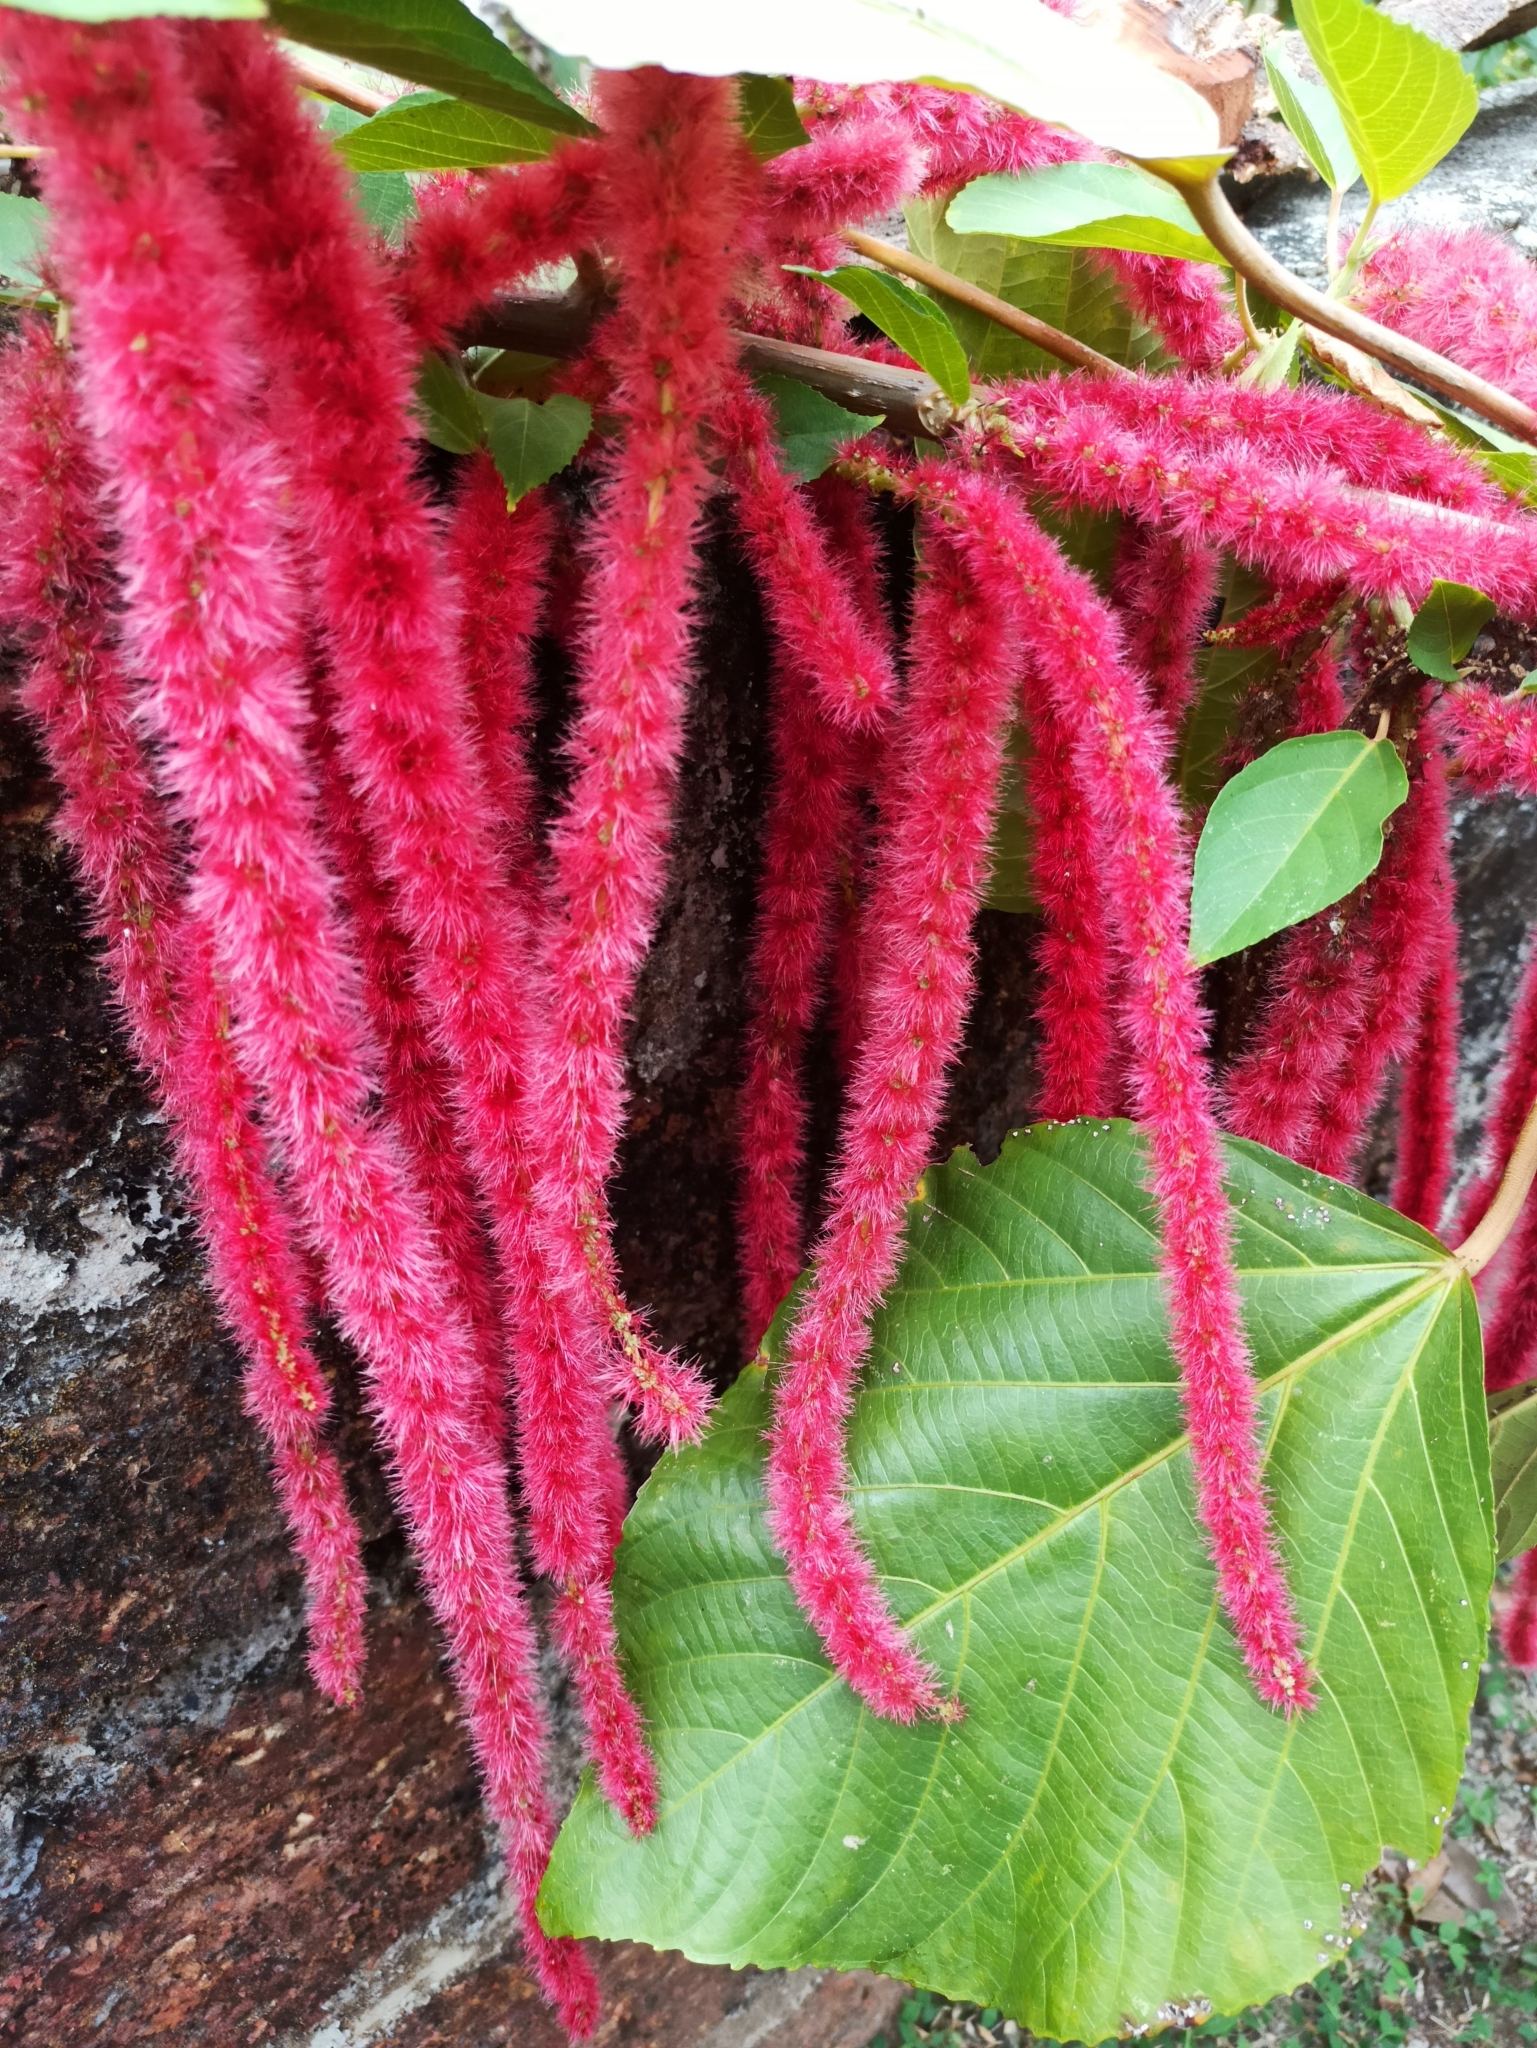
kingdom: Plantae
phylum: Tracheophyta
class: Magnoliopsida
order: Malpighiales
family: Euphorbiaceae
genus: Acalypha
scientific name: Acalypha hispida
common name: Chenilleplant
